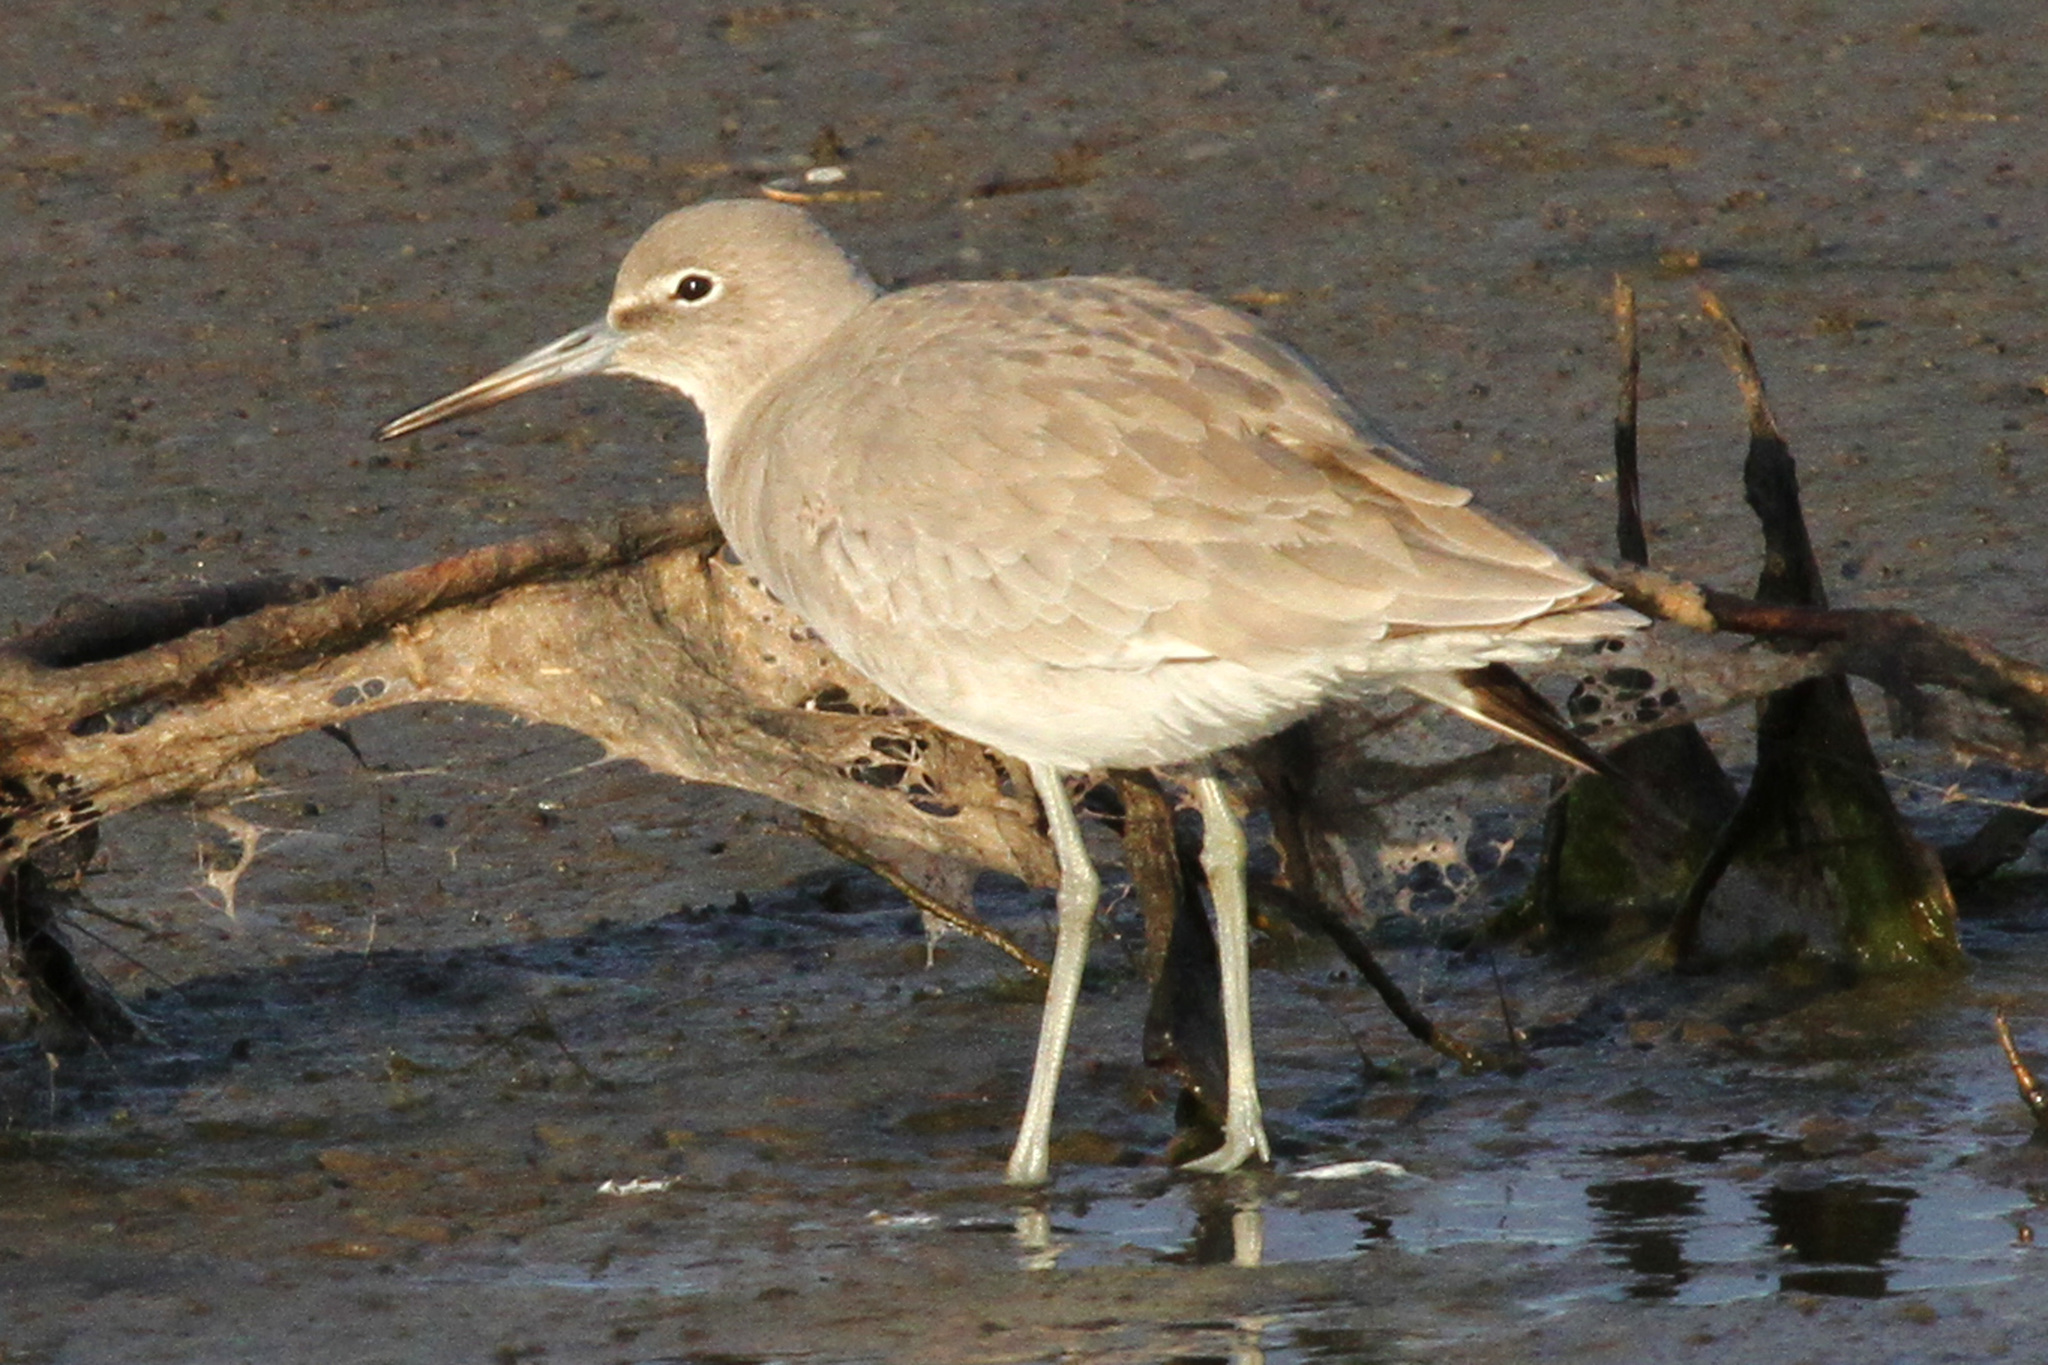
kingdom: Animalia
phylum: Chordata
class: Aves
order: Charadriiformes
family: Scolopacidae
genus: Tringa
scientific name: Tringa semipalmata
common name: Willet
